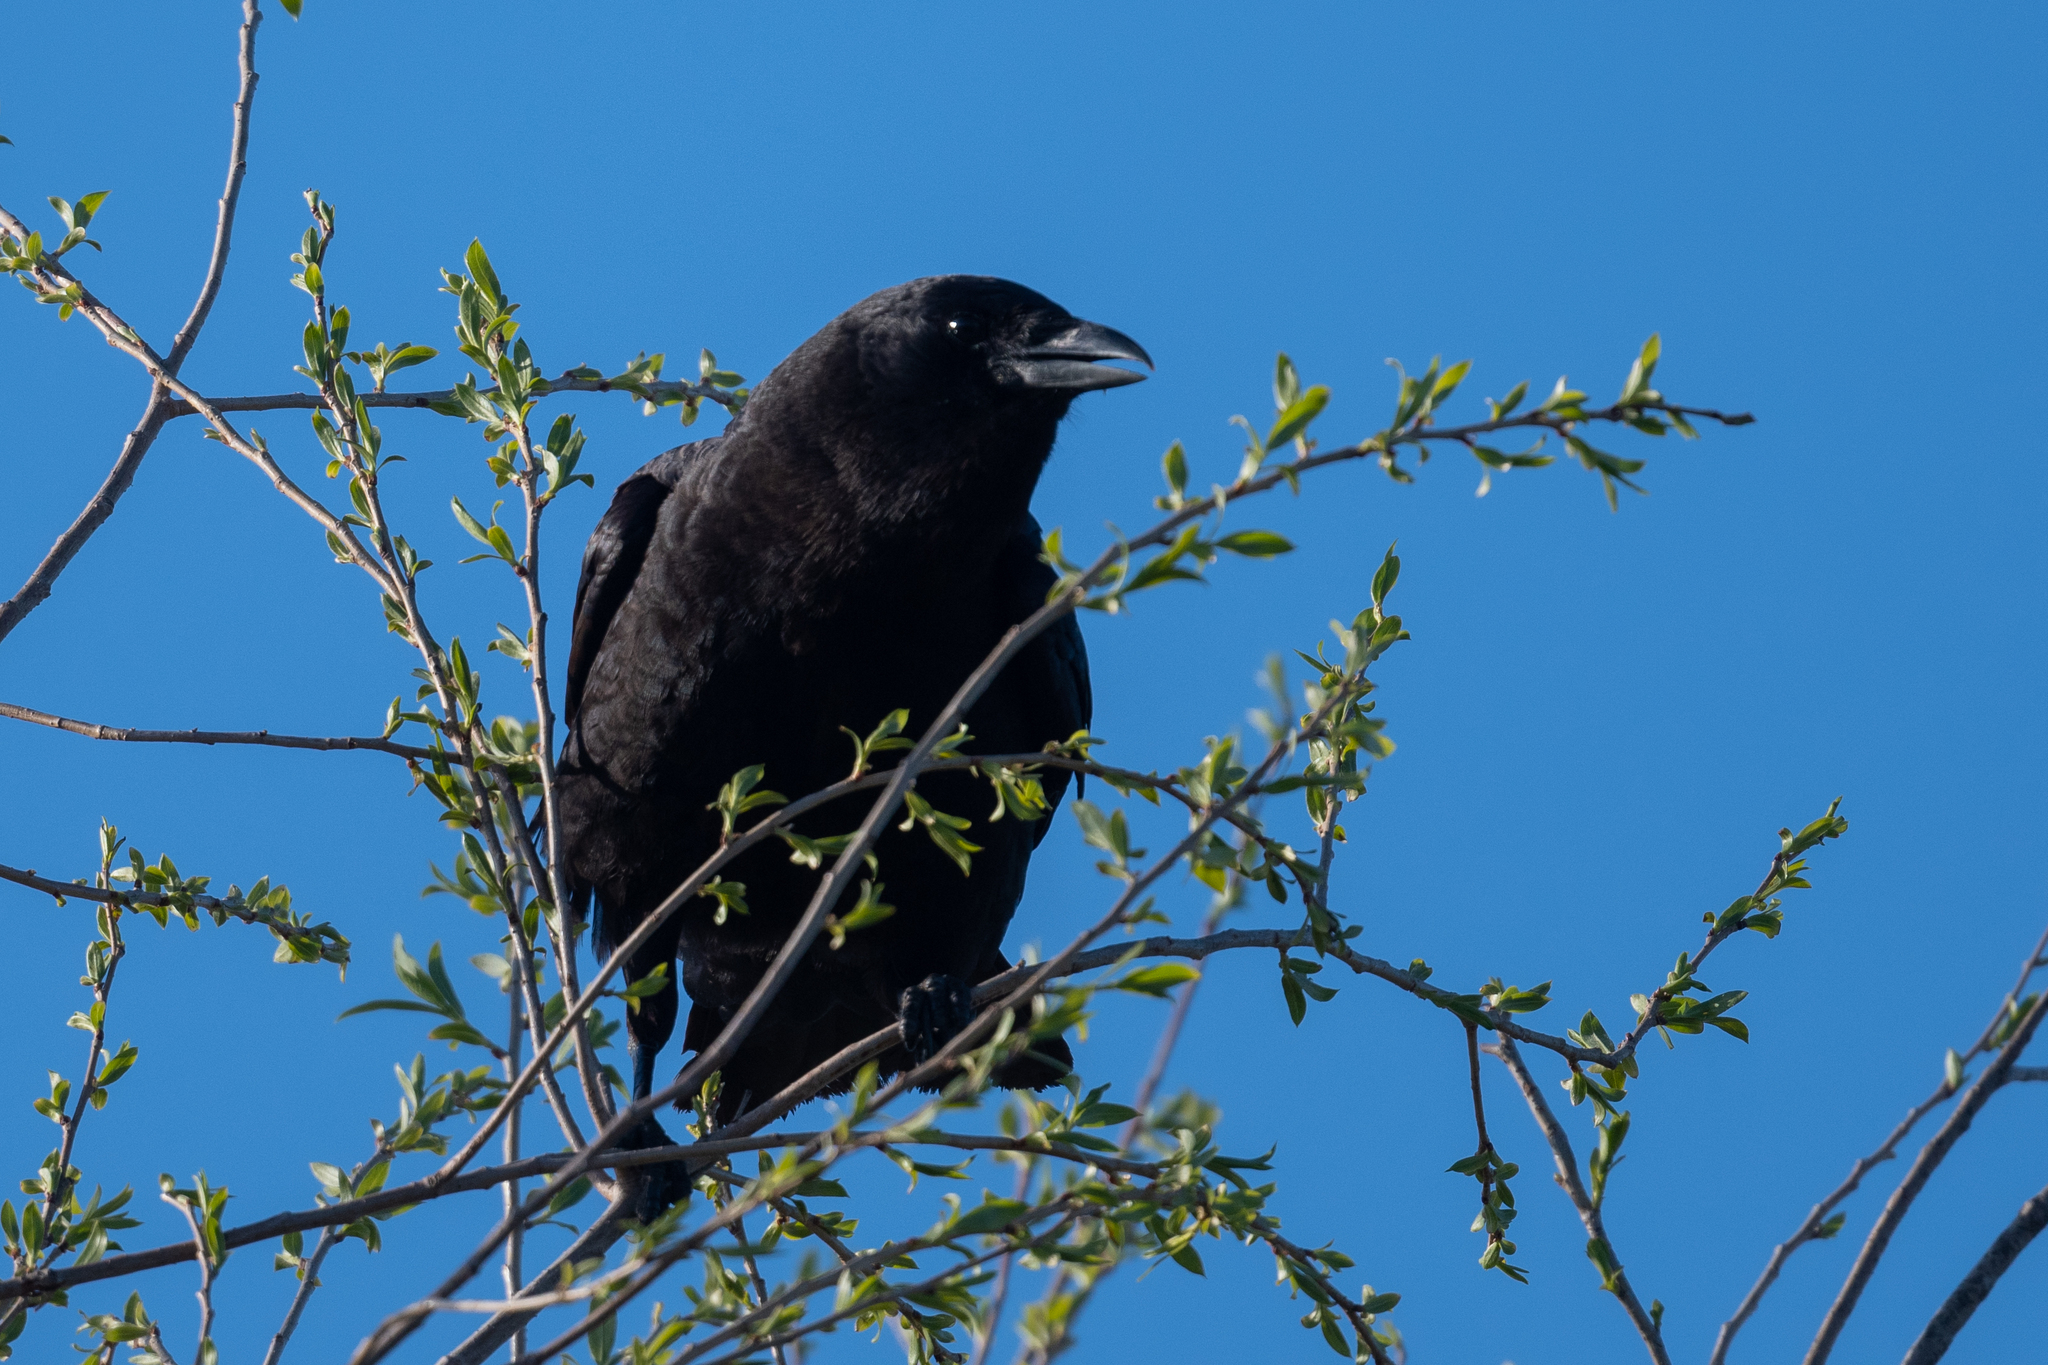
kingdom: Animalia
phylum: Chordata
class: Aves
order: Passeriformes
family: Corvidae
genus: Corvus
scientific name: Corvus brachyrhynchos
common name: American crow
